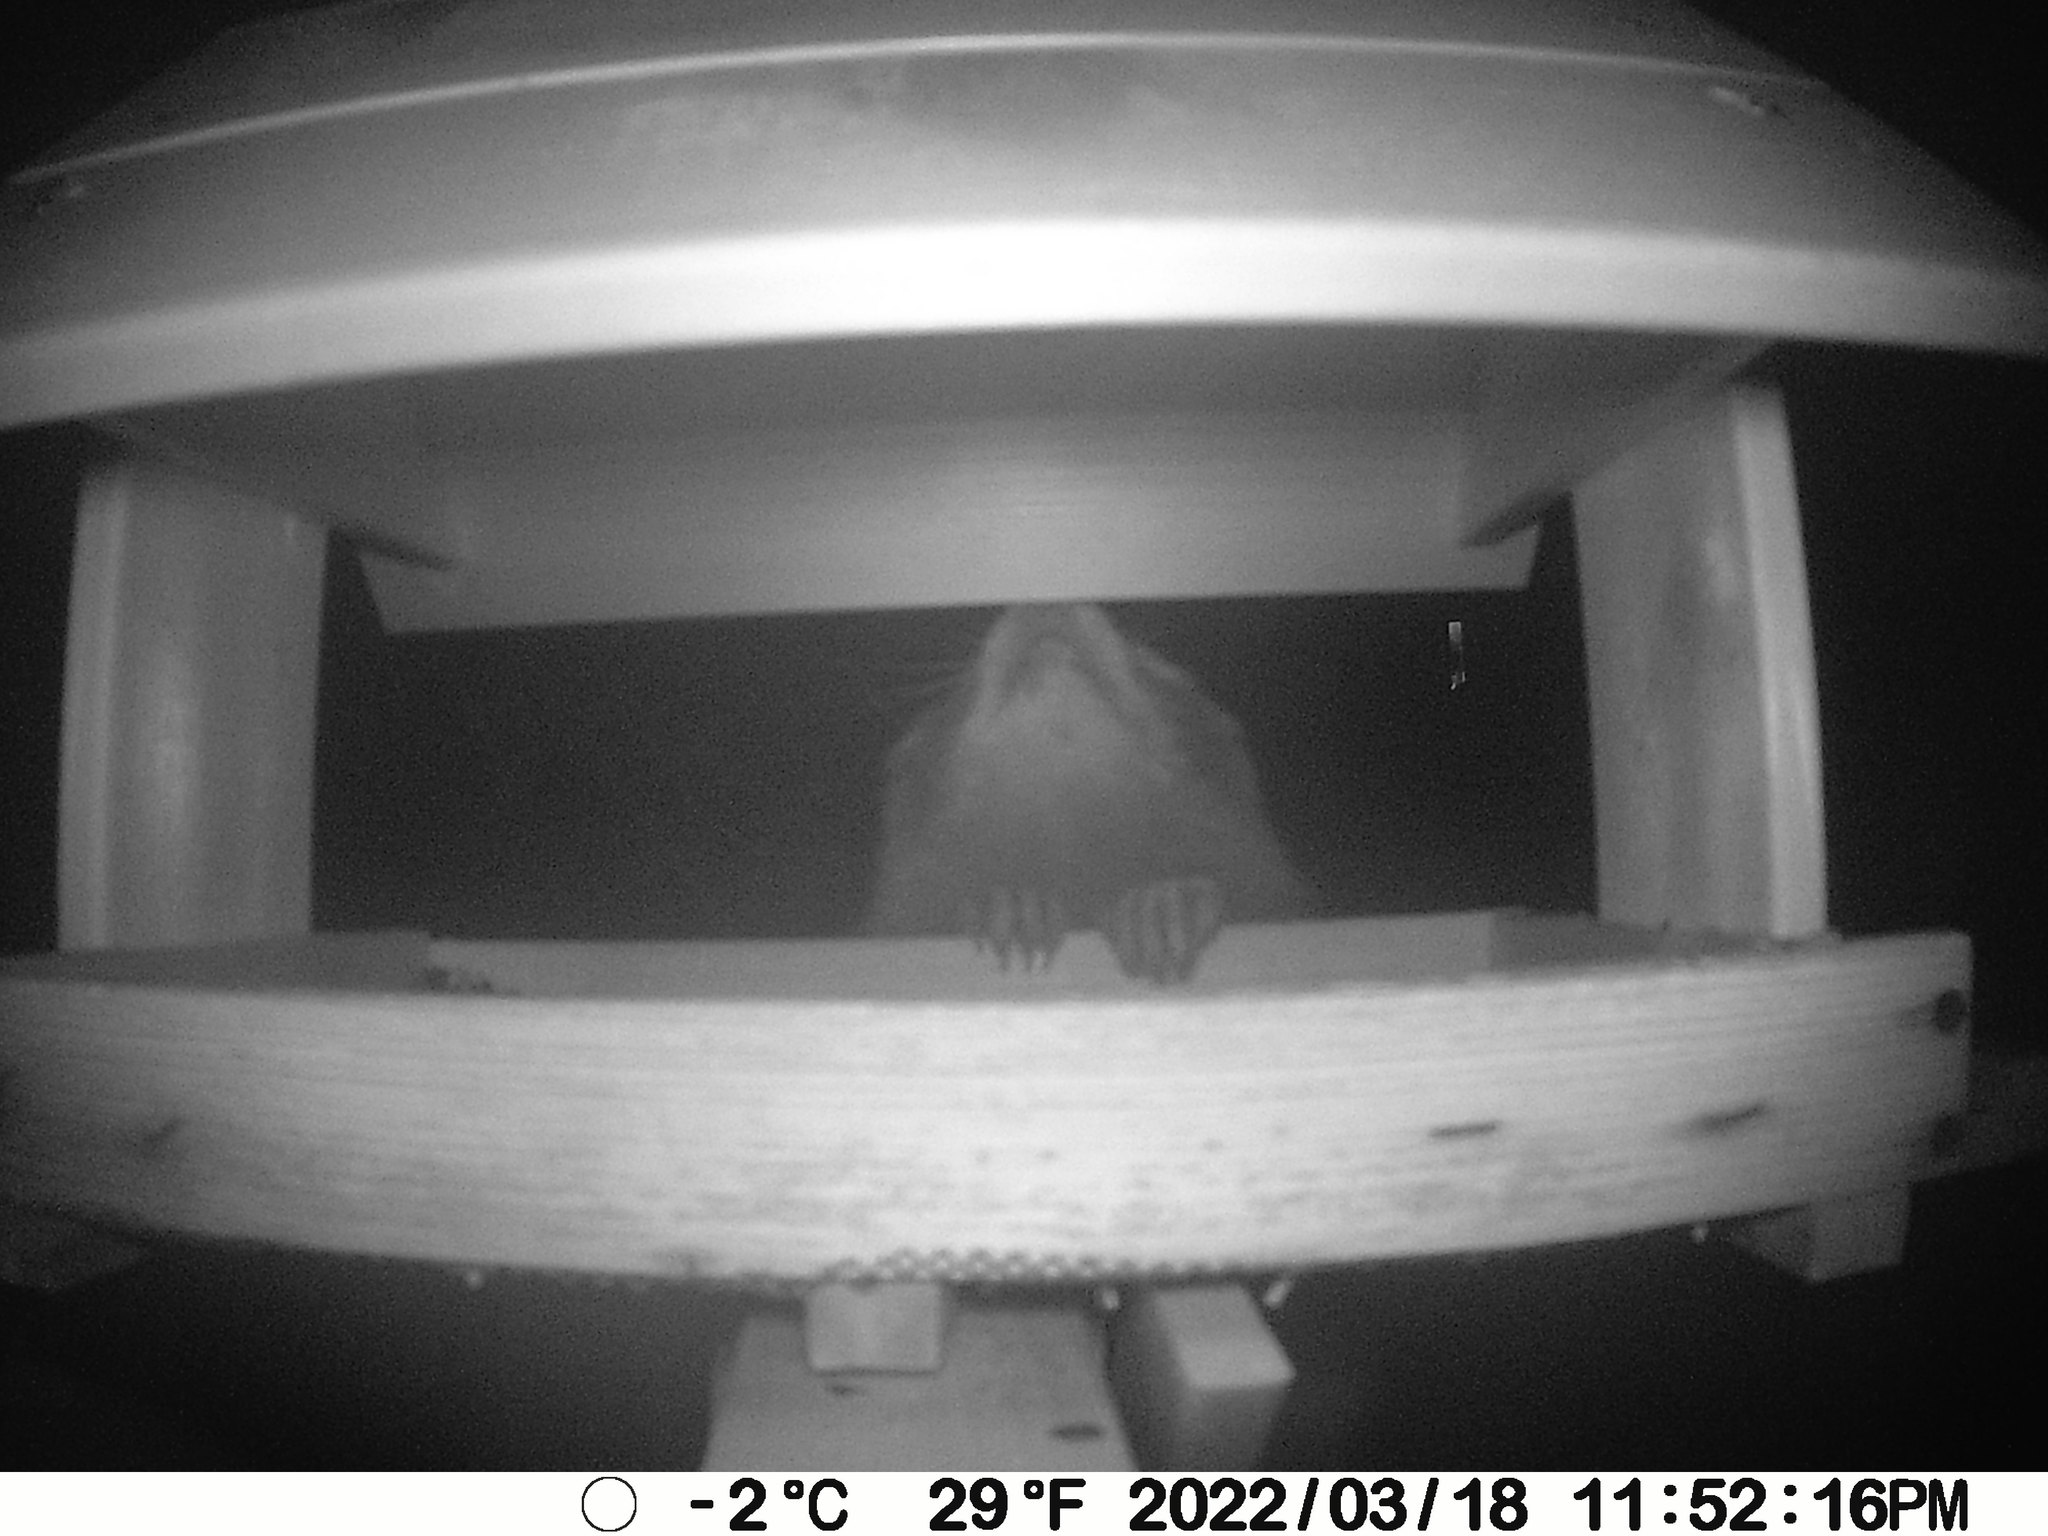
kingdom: Animalia
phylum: Chordata
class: Mammalia
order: Carnivora
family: Procyonidae
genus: Procyon
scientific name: Procyon lotor
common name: Raccoon
